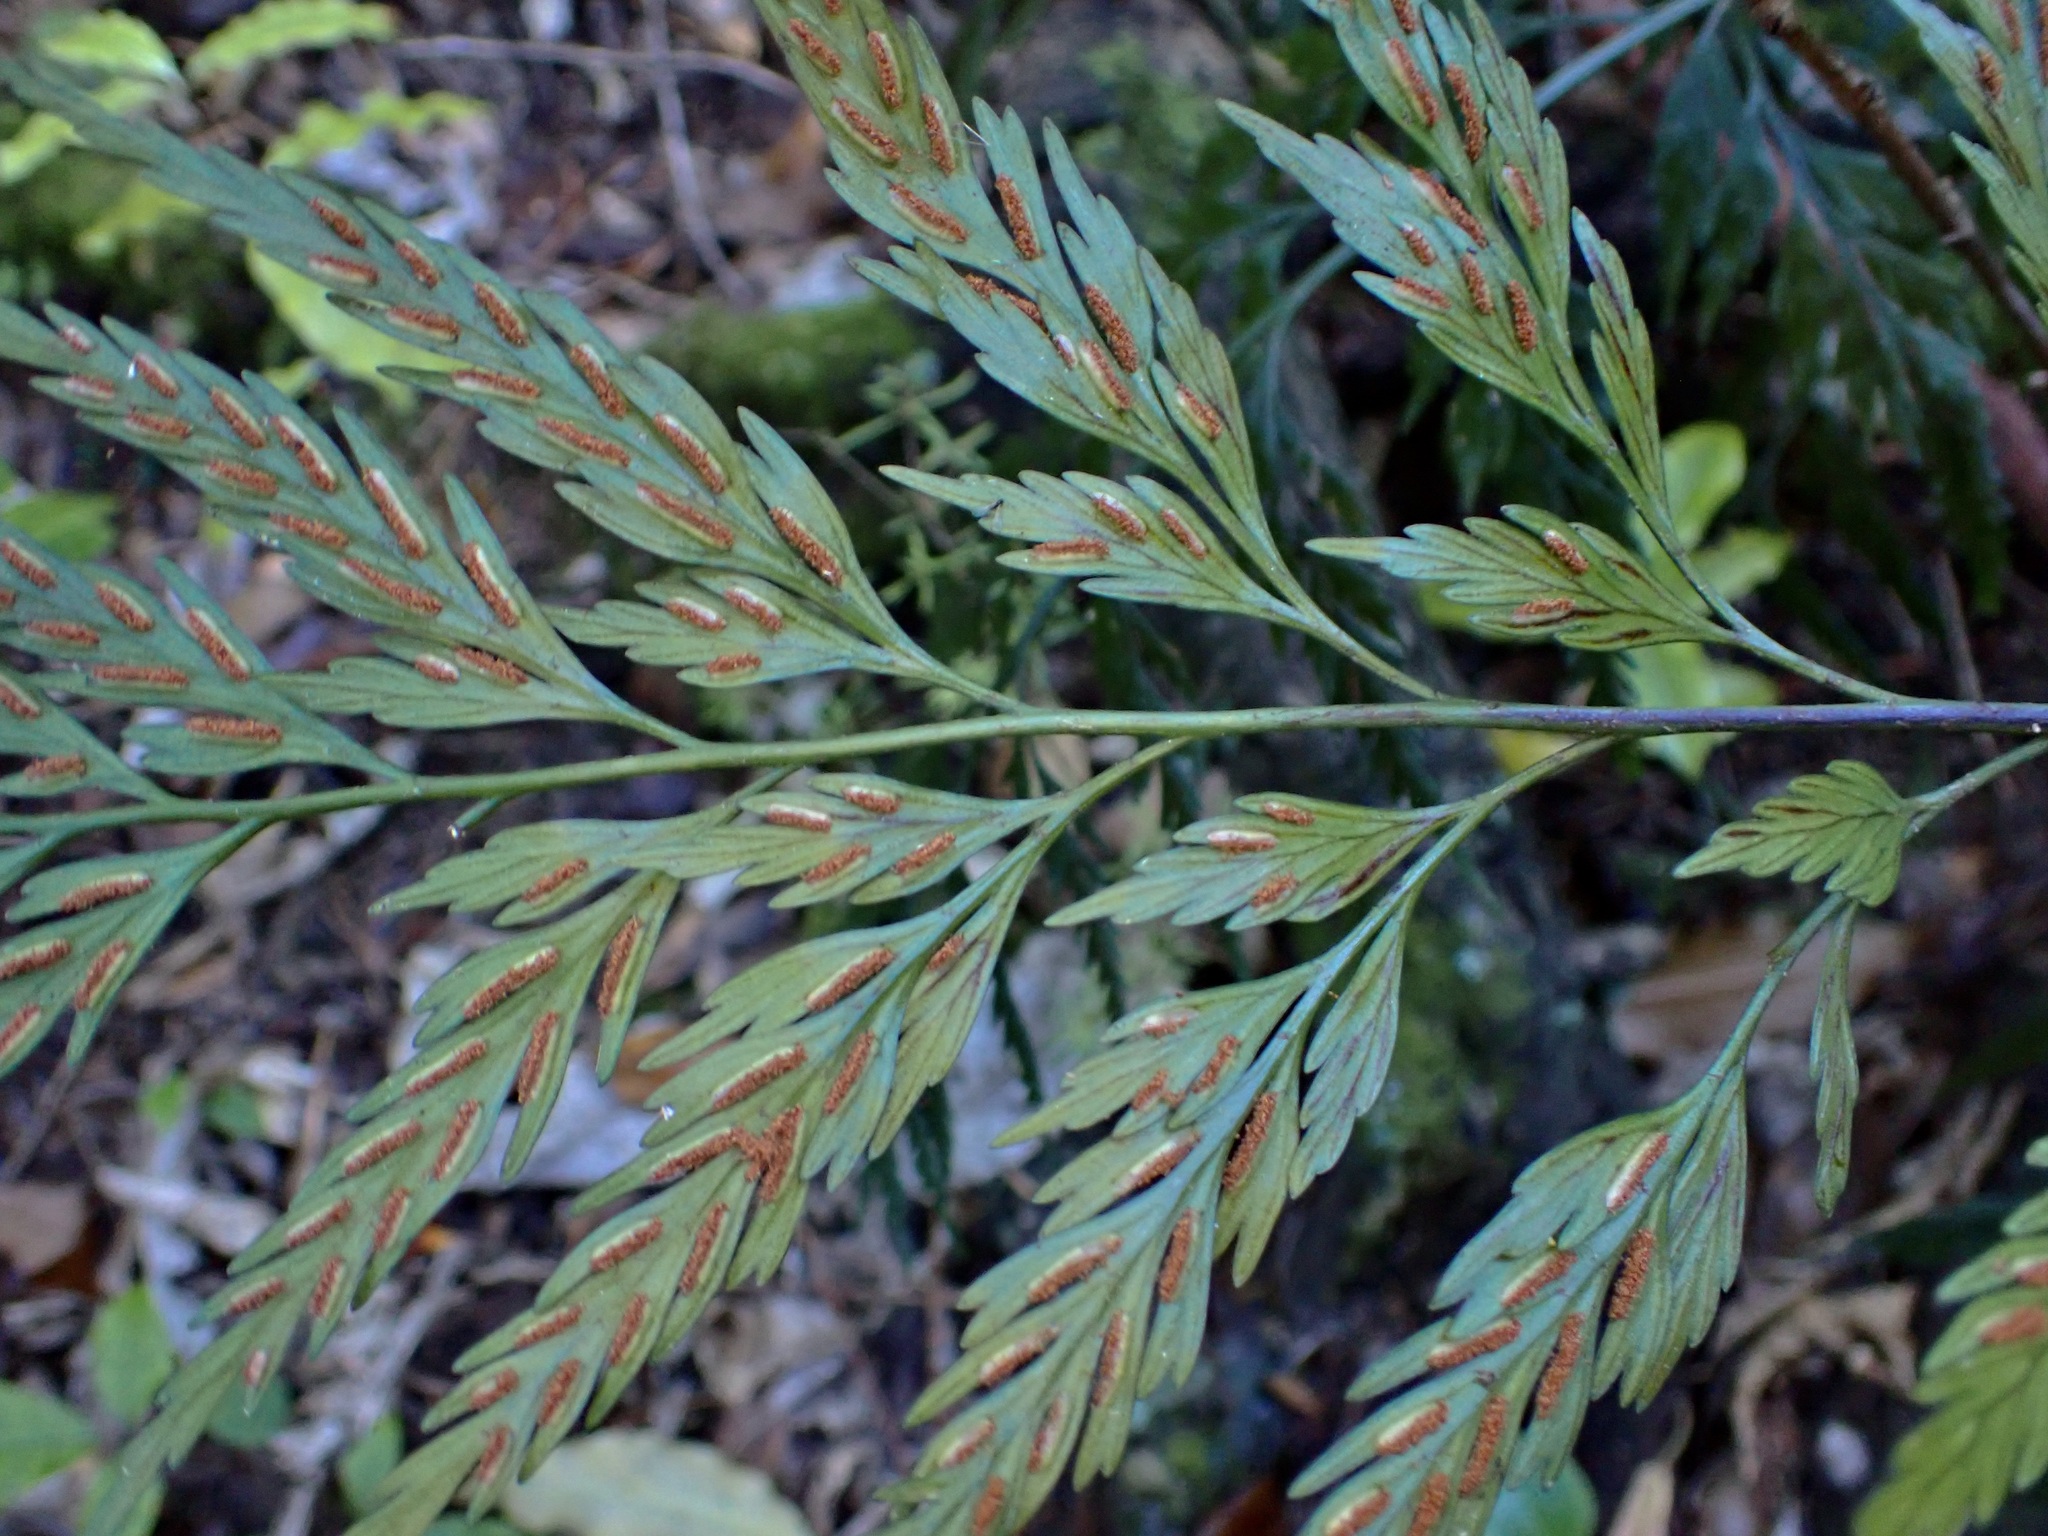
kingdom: Plantae
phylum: Tracheophyta
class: Polypodiopsida
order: Polypodiales
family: Aspleniaceae
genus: Asplenium
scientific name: Asplenium appendiculatum
